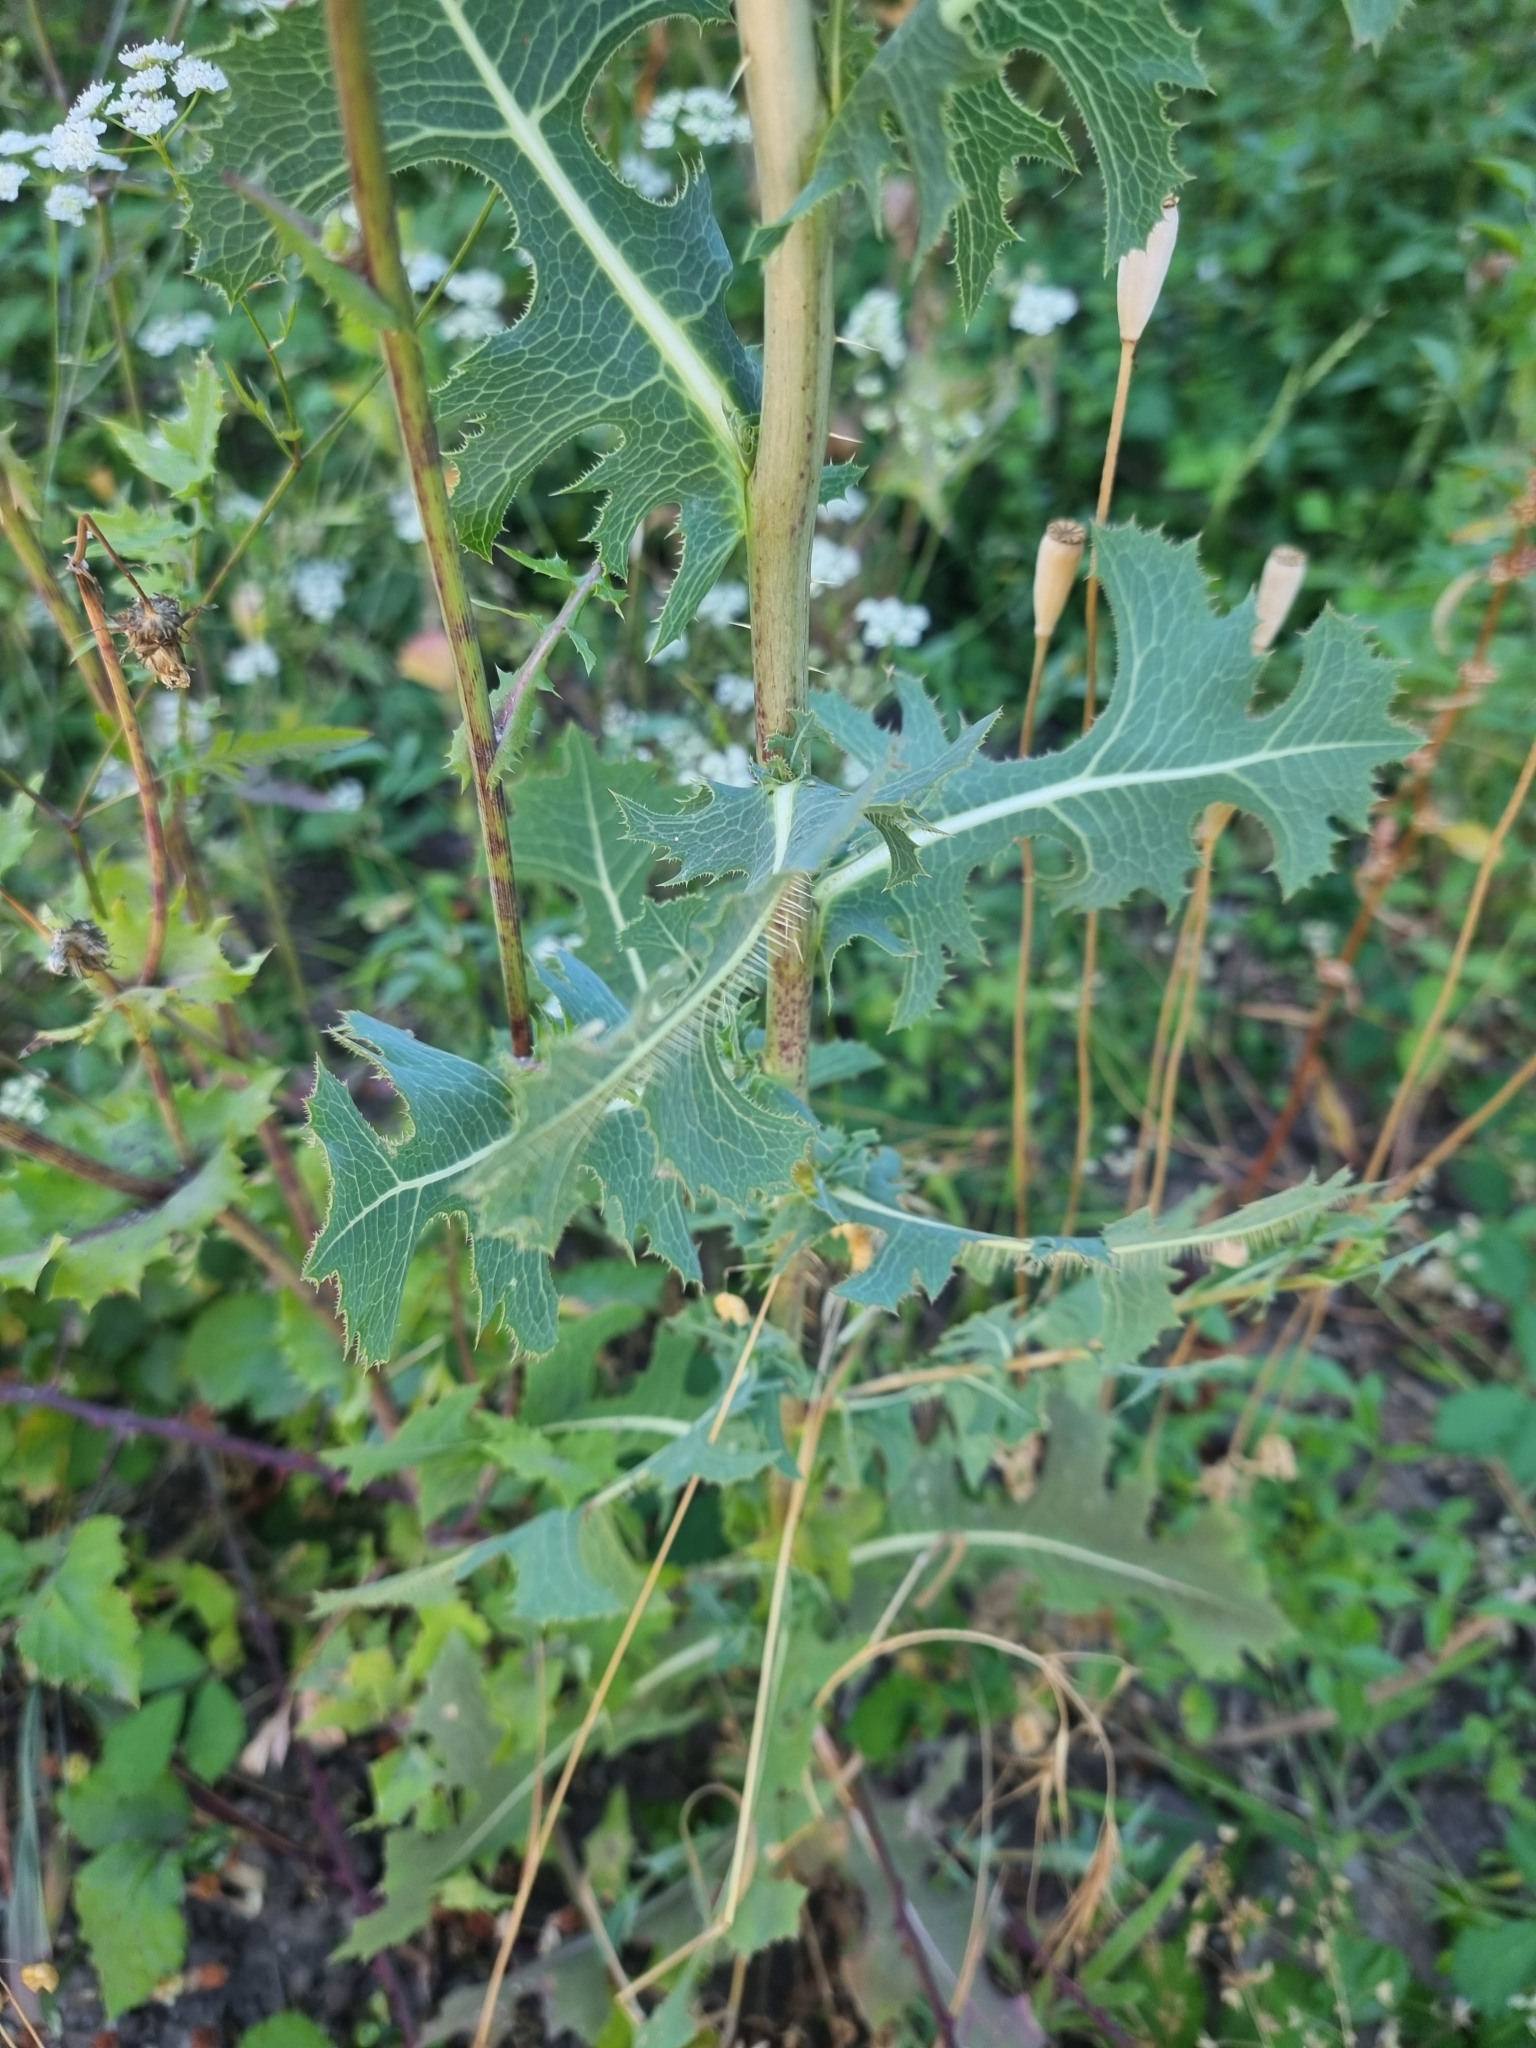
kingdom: Plantae
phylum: Tracheophyta
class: Magnoliopsida
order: Asterales
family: Asteraceae
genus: Lactuca
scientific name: Lactuca serriola
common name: Prickly lettuce
